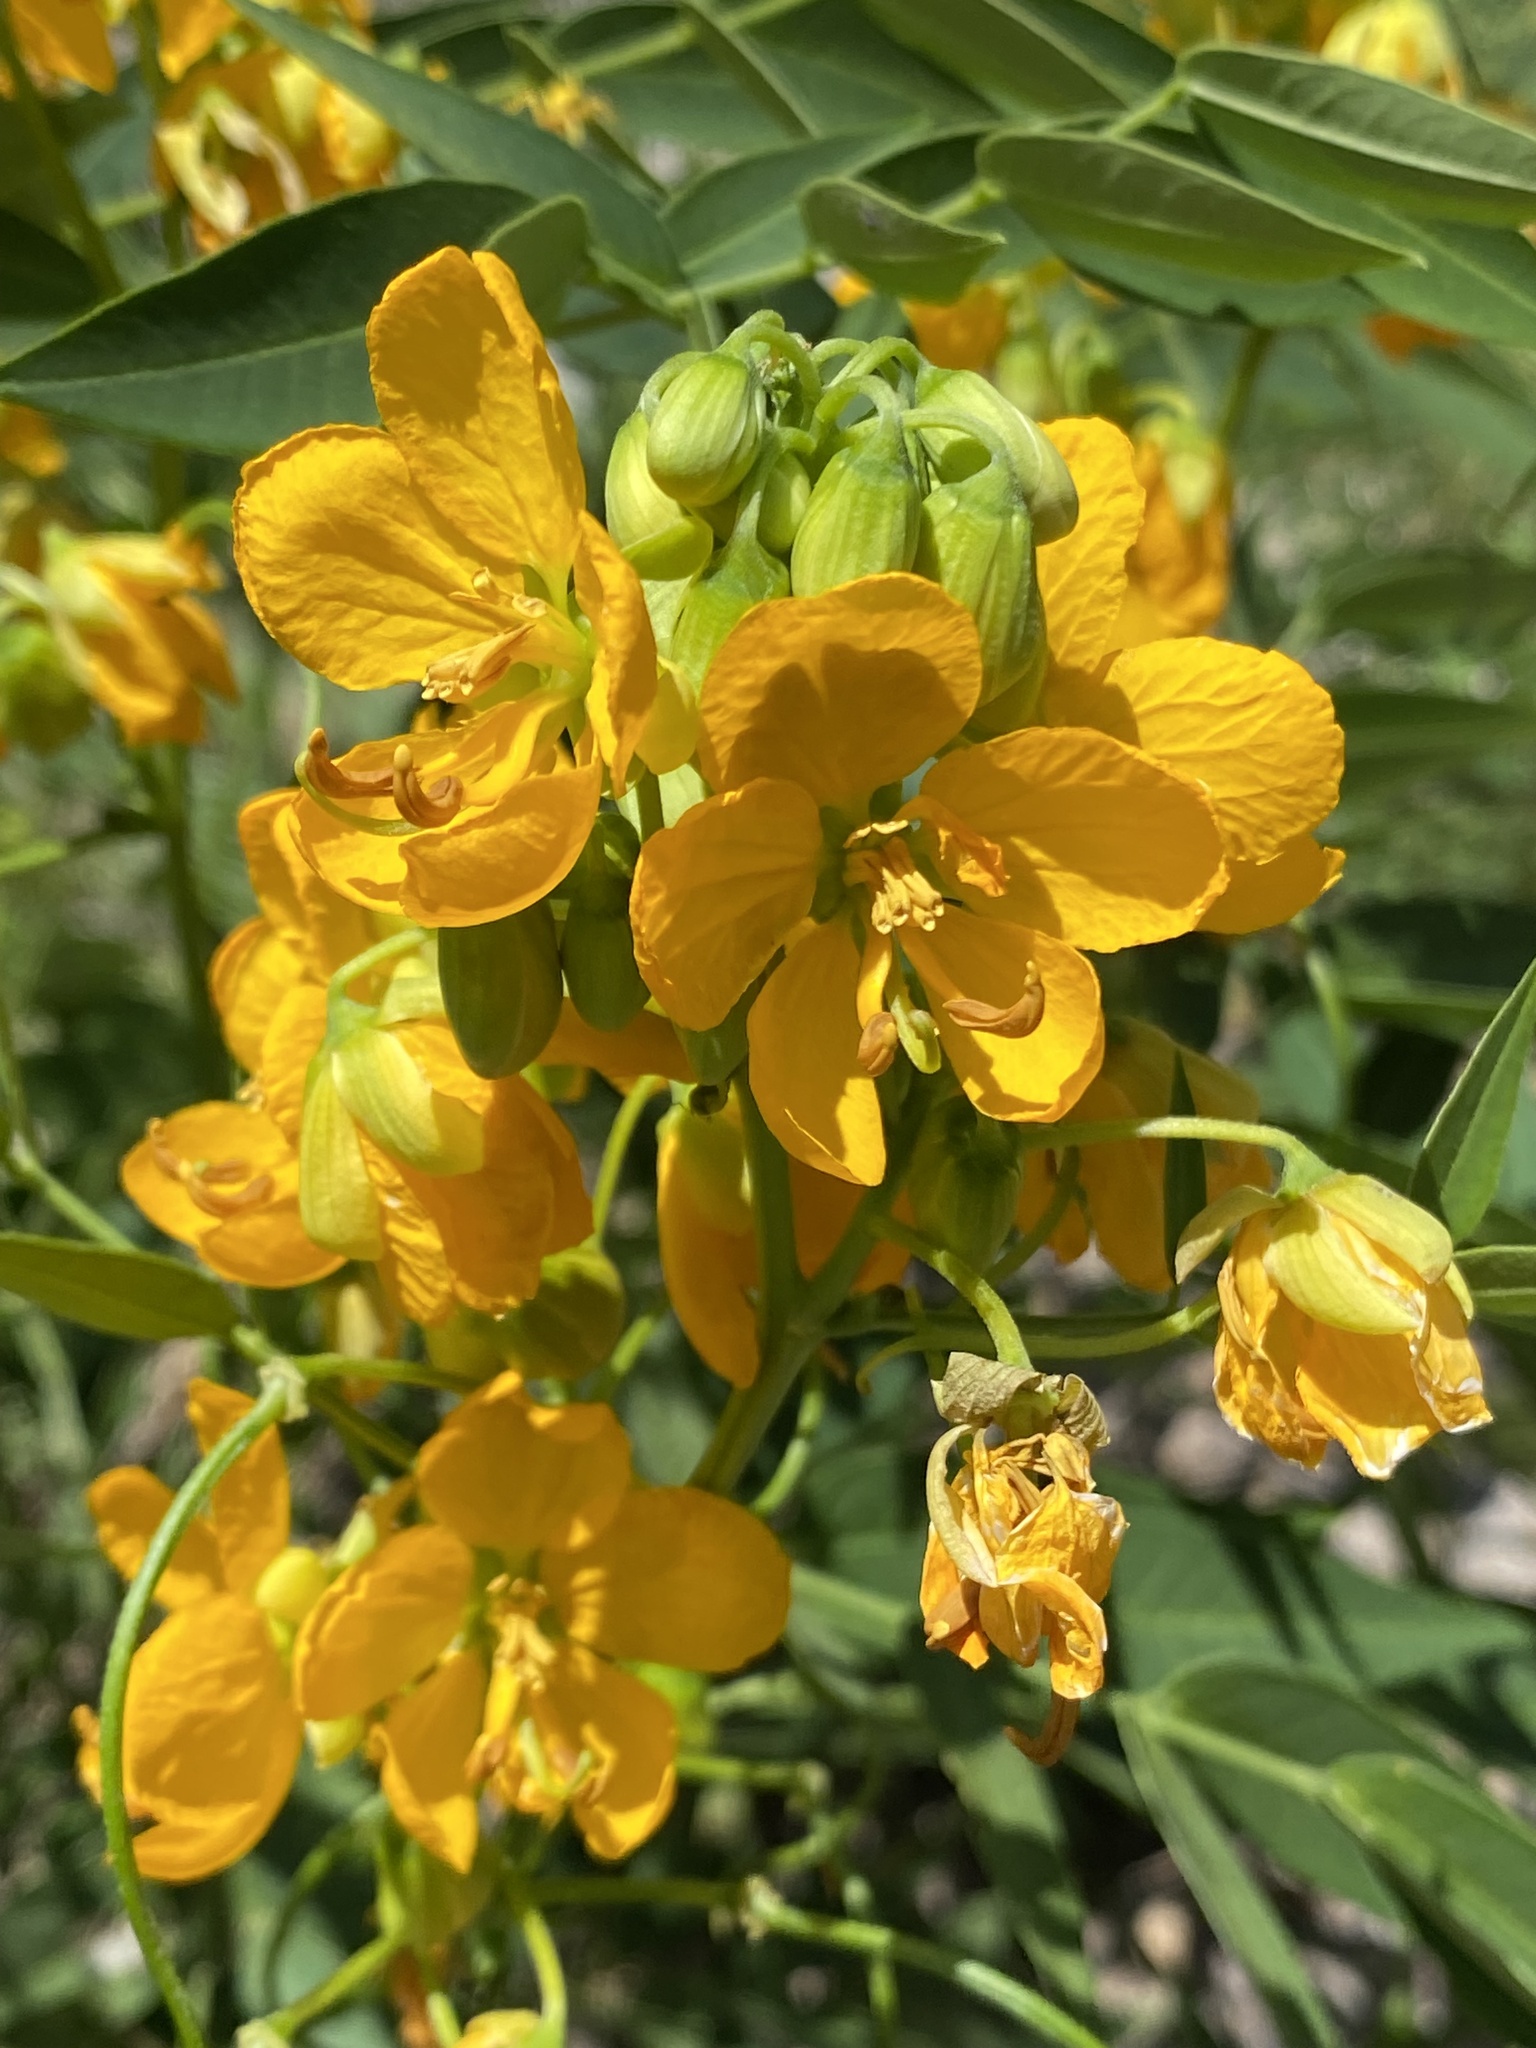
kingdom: Plantae
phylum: Tracheophyta
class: Magnoliopsida
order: Fabales
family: Fabaceae
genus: Senna
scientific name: Senna hirsuta
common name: Woolly senna
